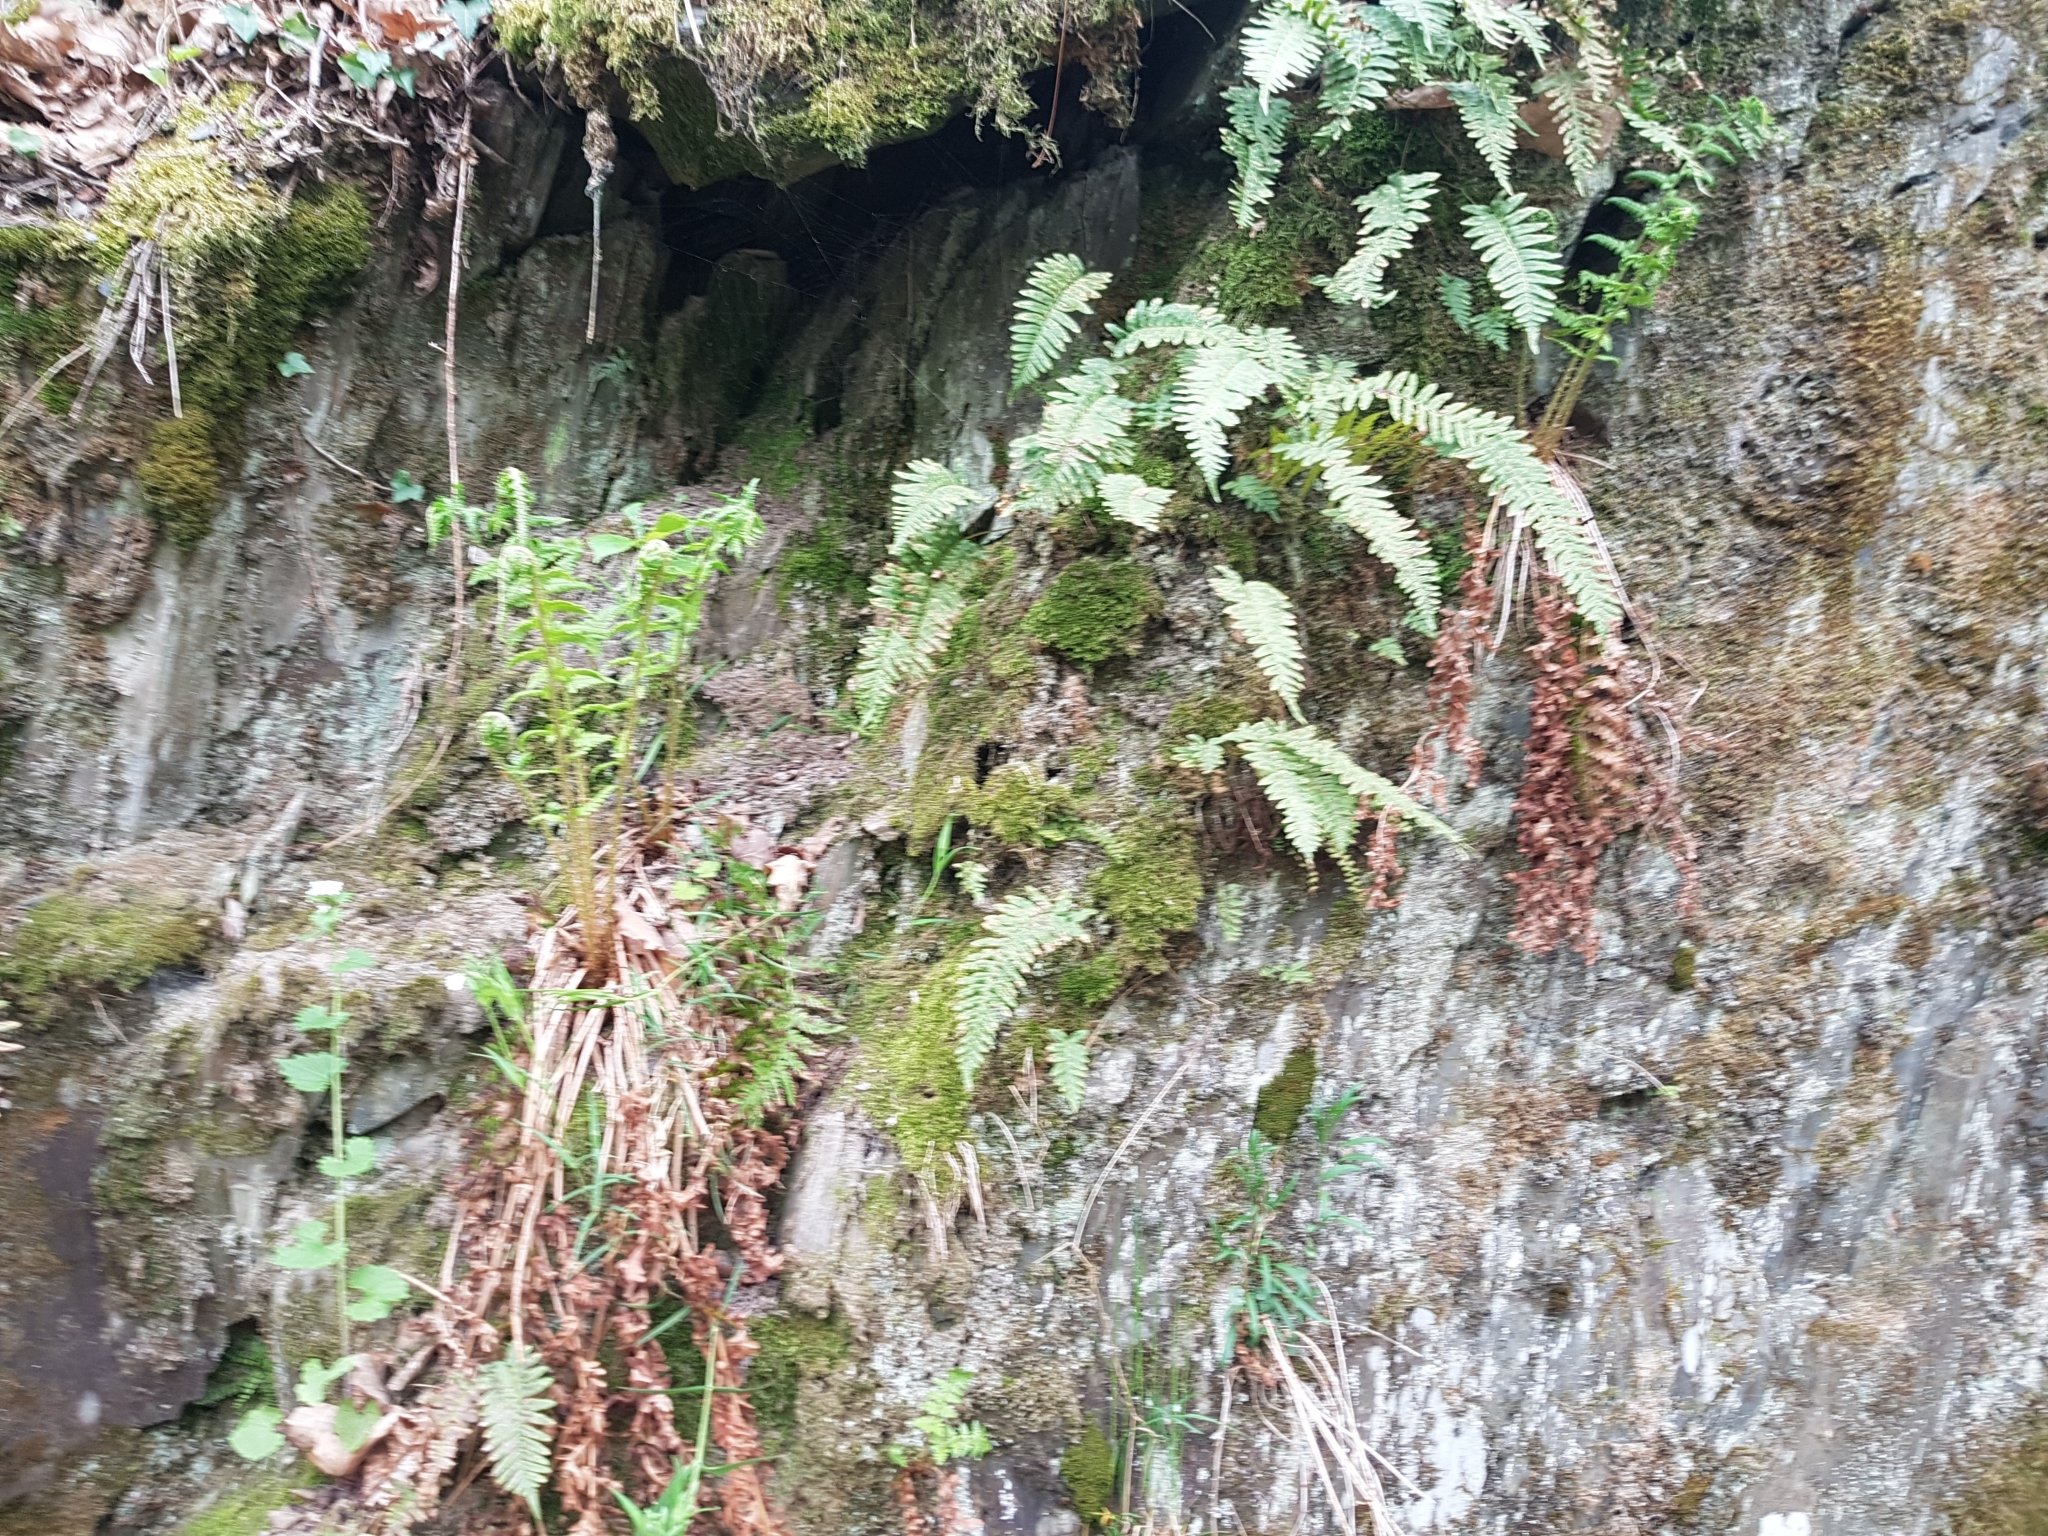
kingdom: Plantae
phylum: Tracheophyta
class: Polypodiopsida
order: Polypodiales
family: Polypodiaceae
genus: Polypodium
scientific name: Polypodium vulgare
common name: Common polypody
